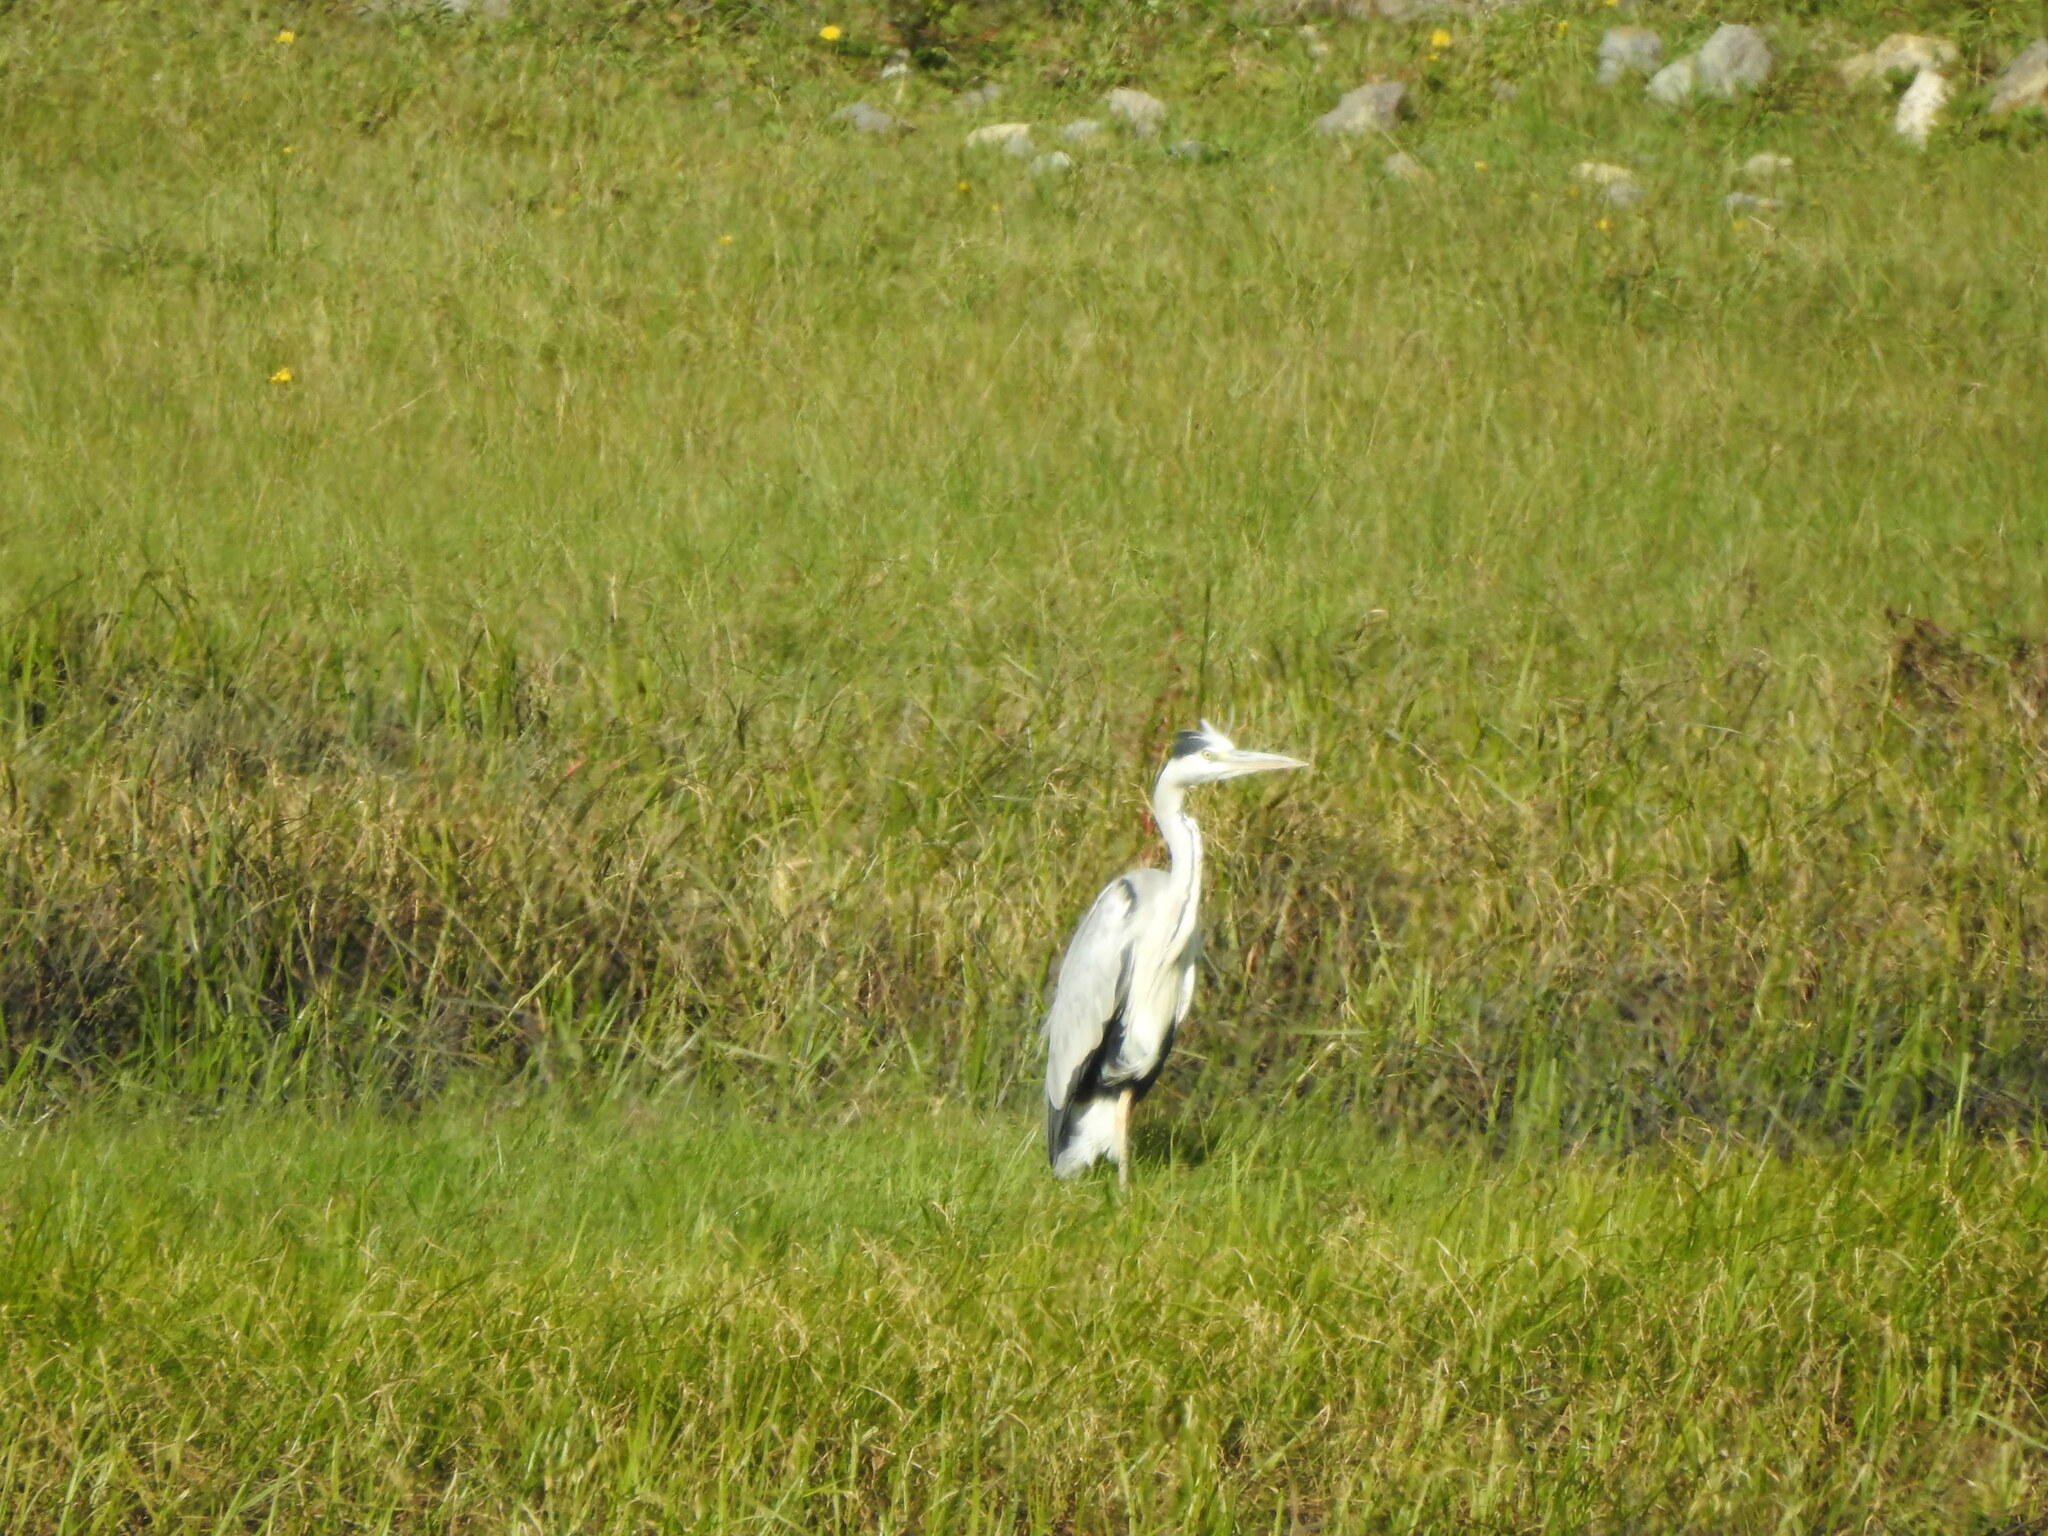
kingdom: Animalia
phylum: Chordata
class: Aves
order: Pelecaniformes
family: Ardeidae
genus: Ardea
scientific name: Ardea cinerea
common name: Grey heron
